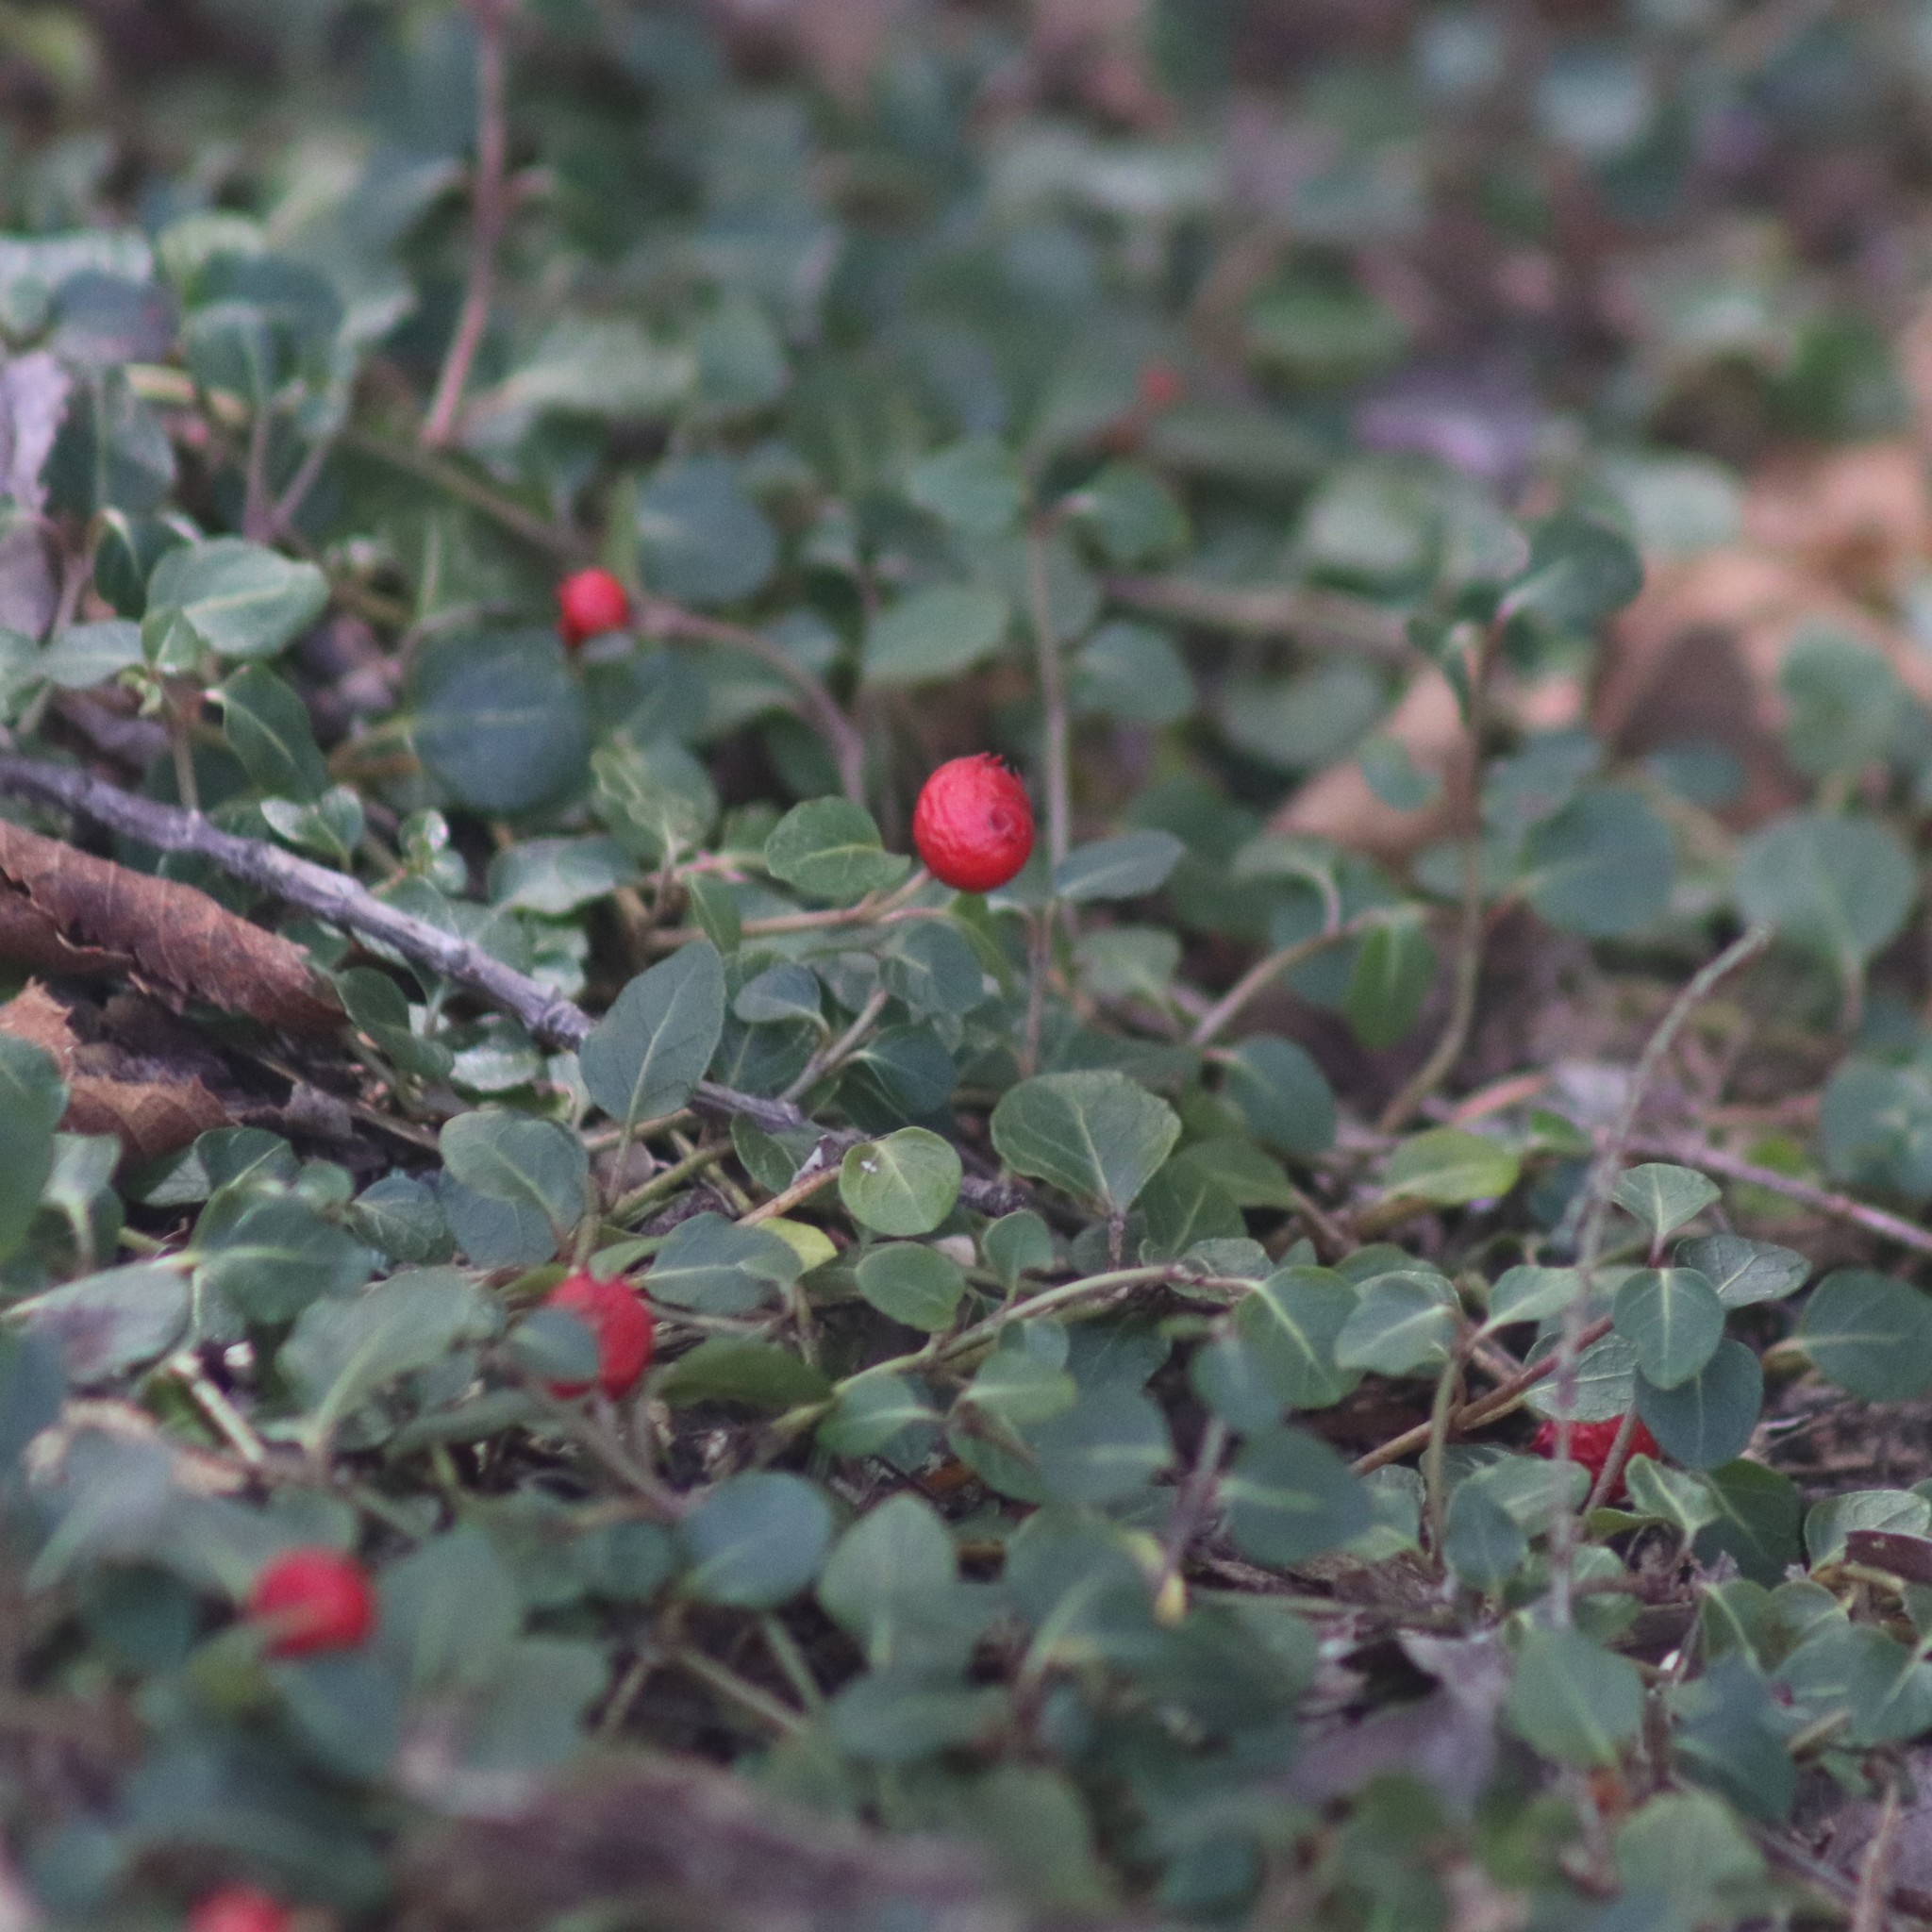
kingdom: Plantae
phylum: Tracheophyta
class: Magnoliopsida
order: Gentianales
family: Rubiaceae
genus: Mitchella
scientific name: Mitchella repens
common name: Partridge-berry
